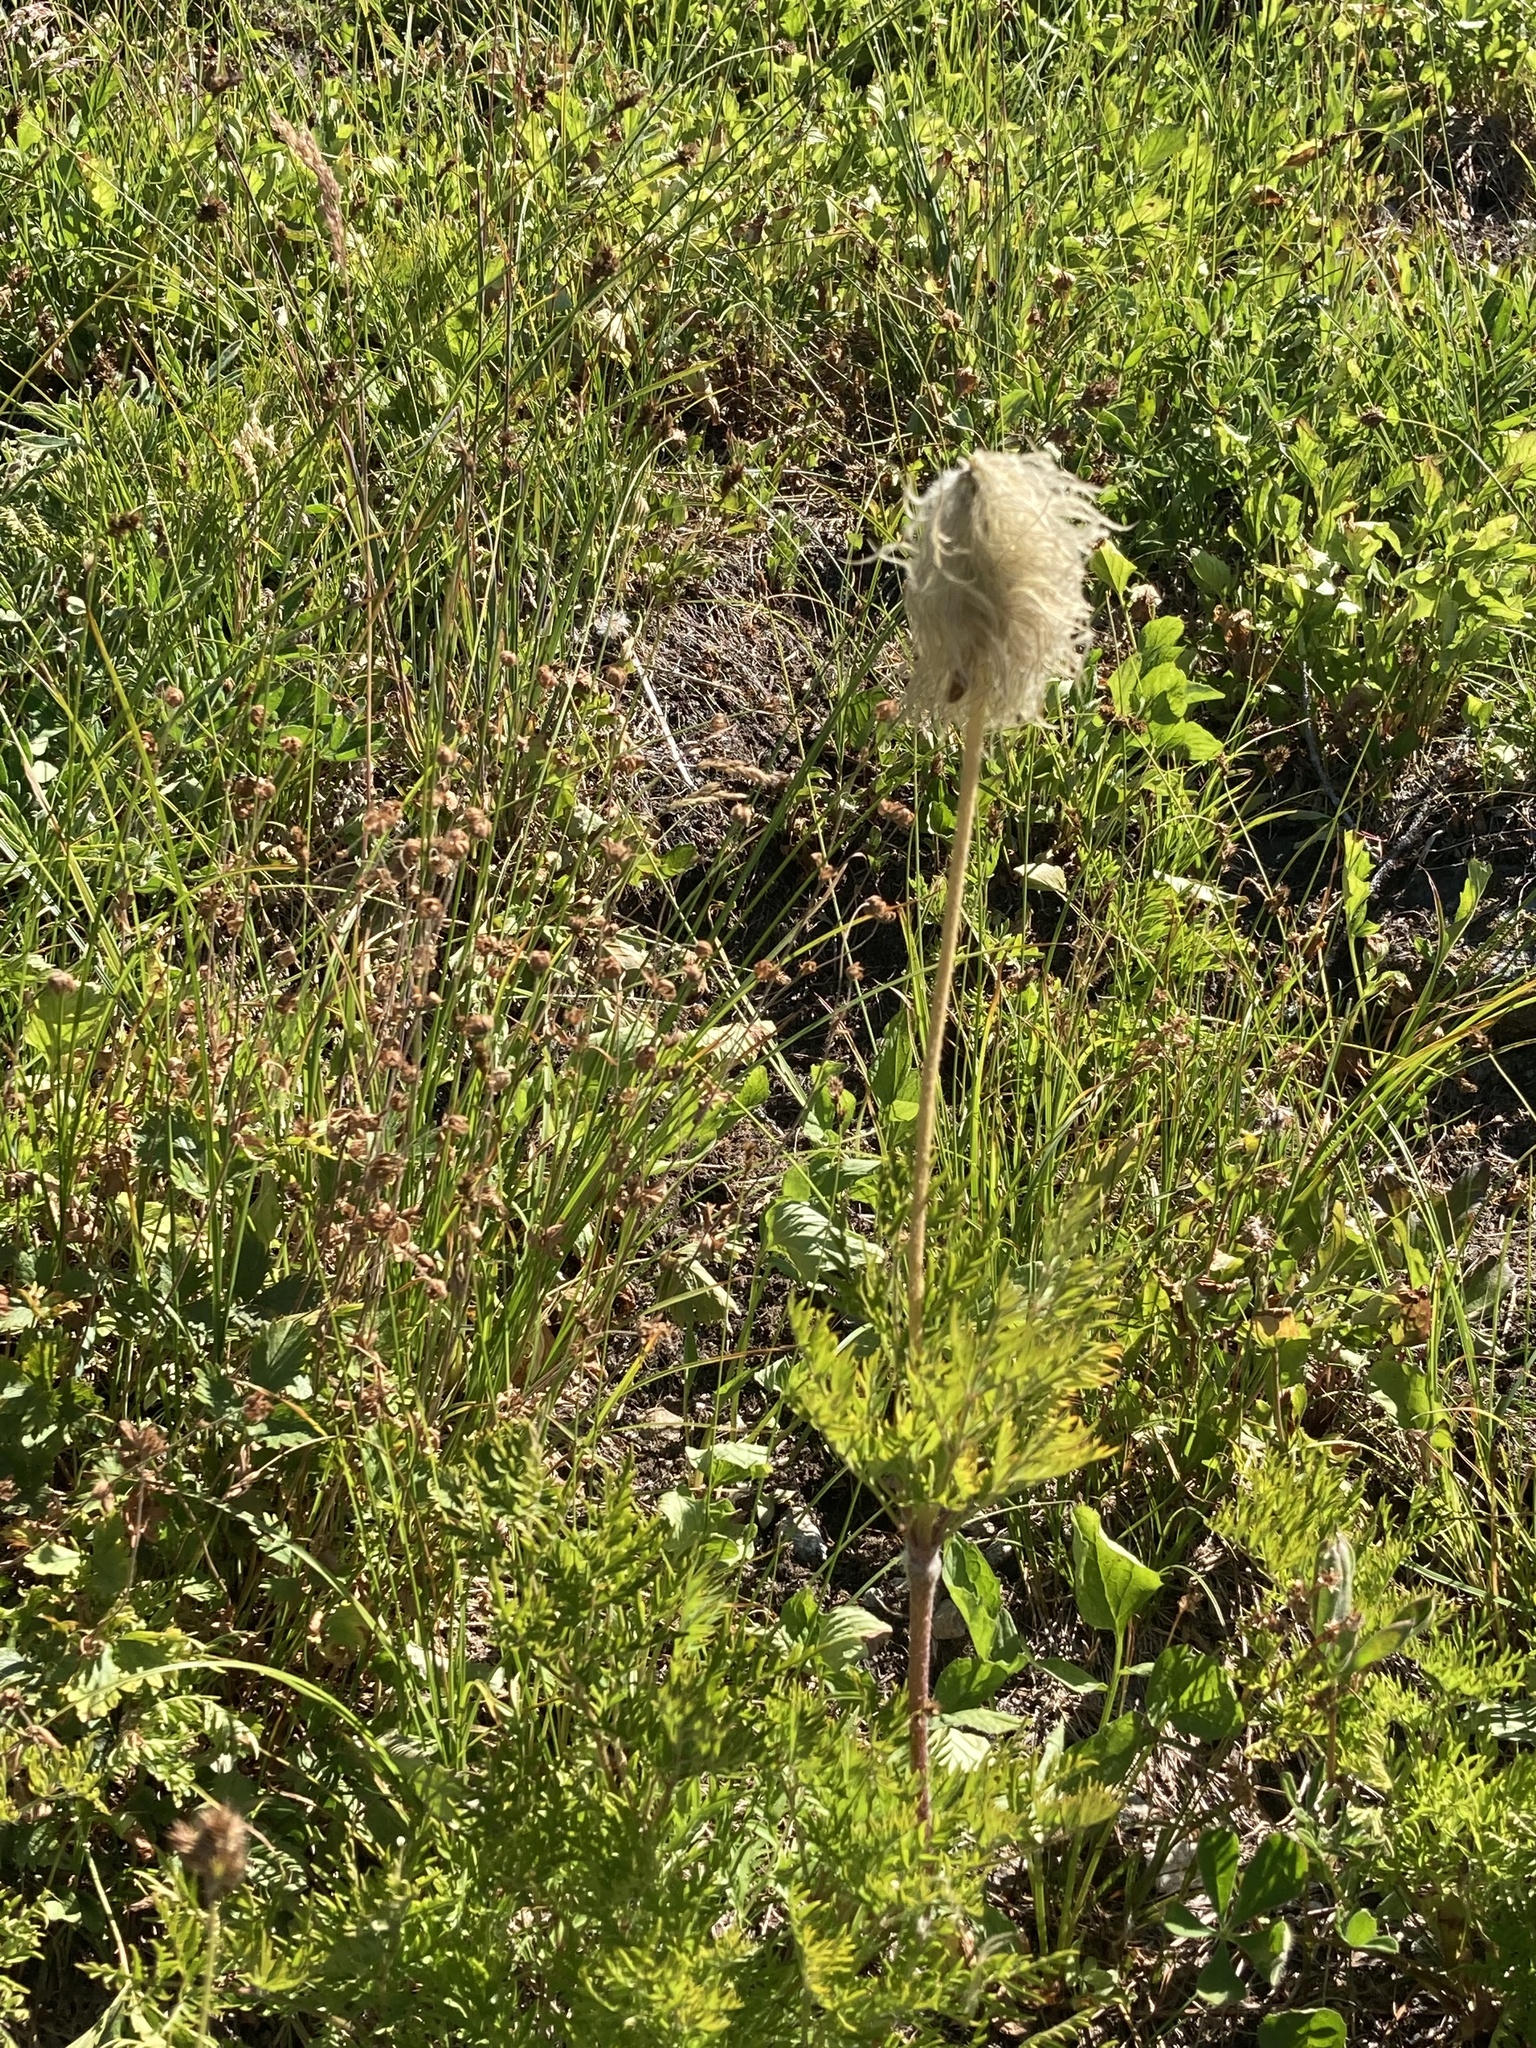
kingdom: Plantae
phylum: Tracheophyta
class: Magnoliopsida
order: Ranunculales
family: Ranunculaceae
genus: Pulsatilla
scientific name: Pulsatilla occidentalis
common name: Mountain pasqueflower
